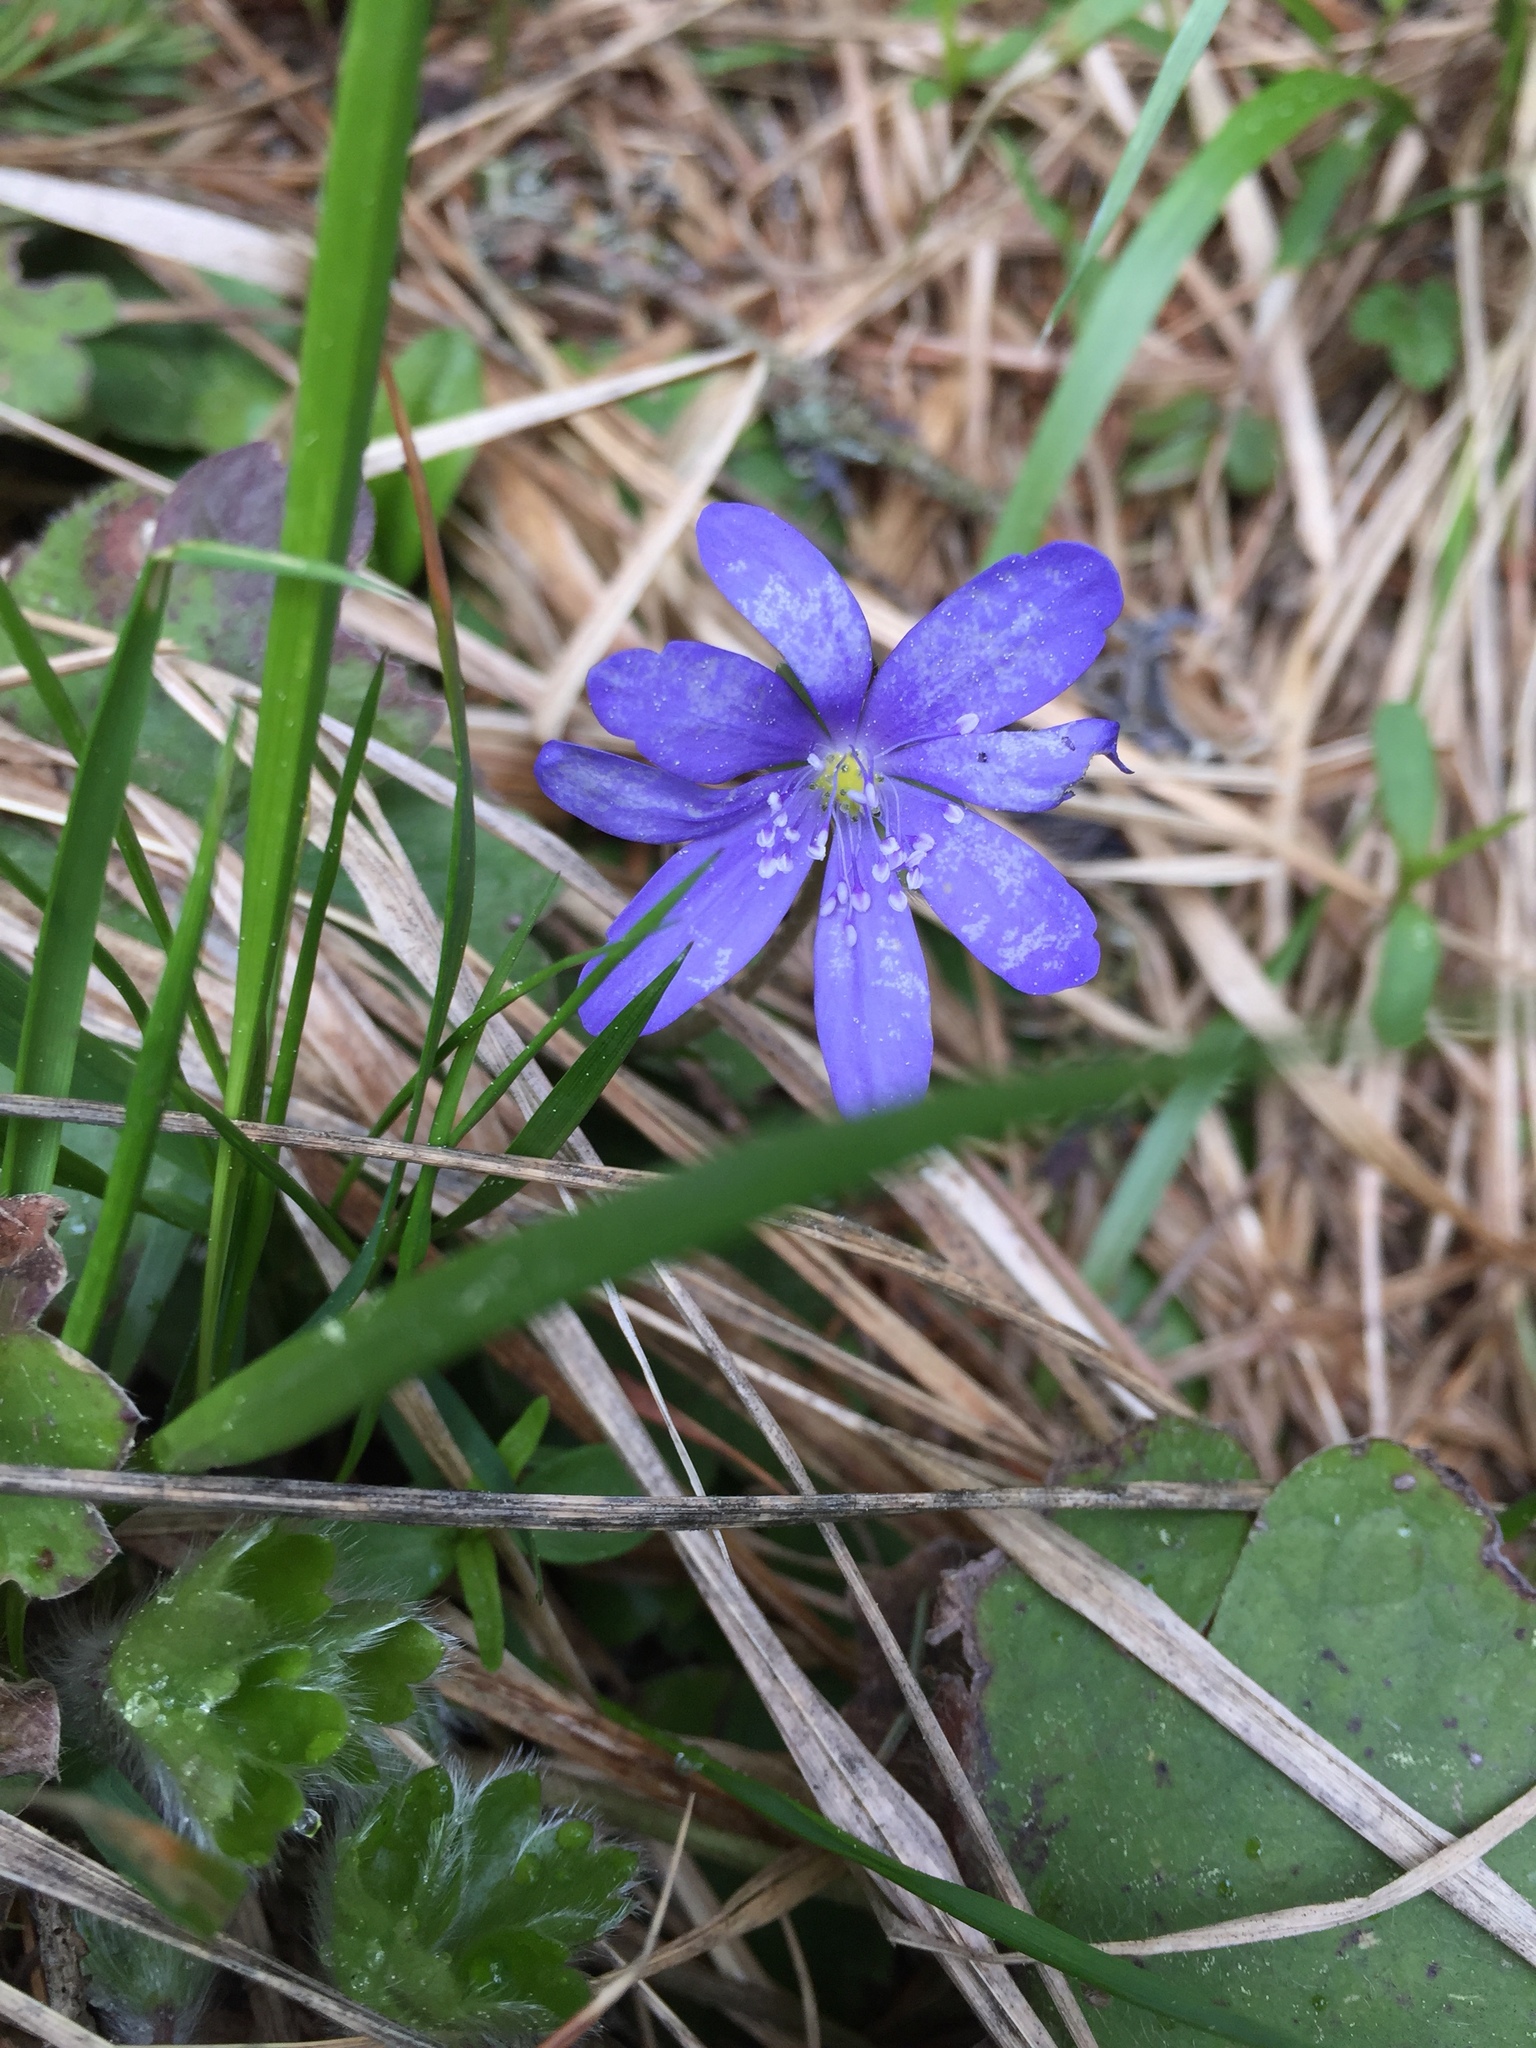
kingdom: Plantae
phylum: Tracheophyta
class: Magnoliopsida
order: Ranunculales
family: Ranunculaceae
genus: Hepatica
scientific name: Hepatica transsilvanica
